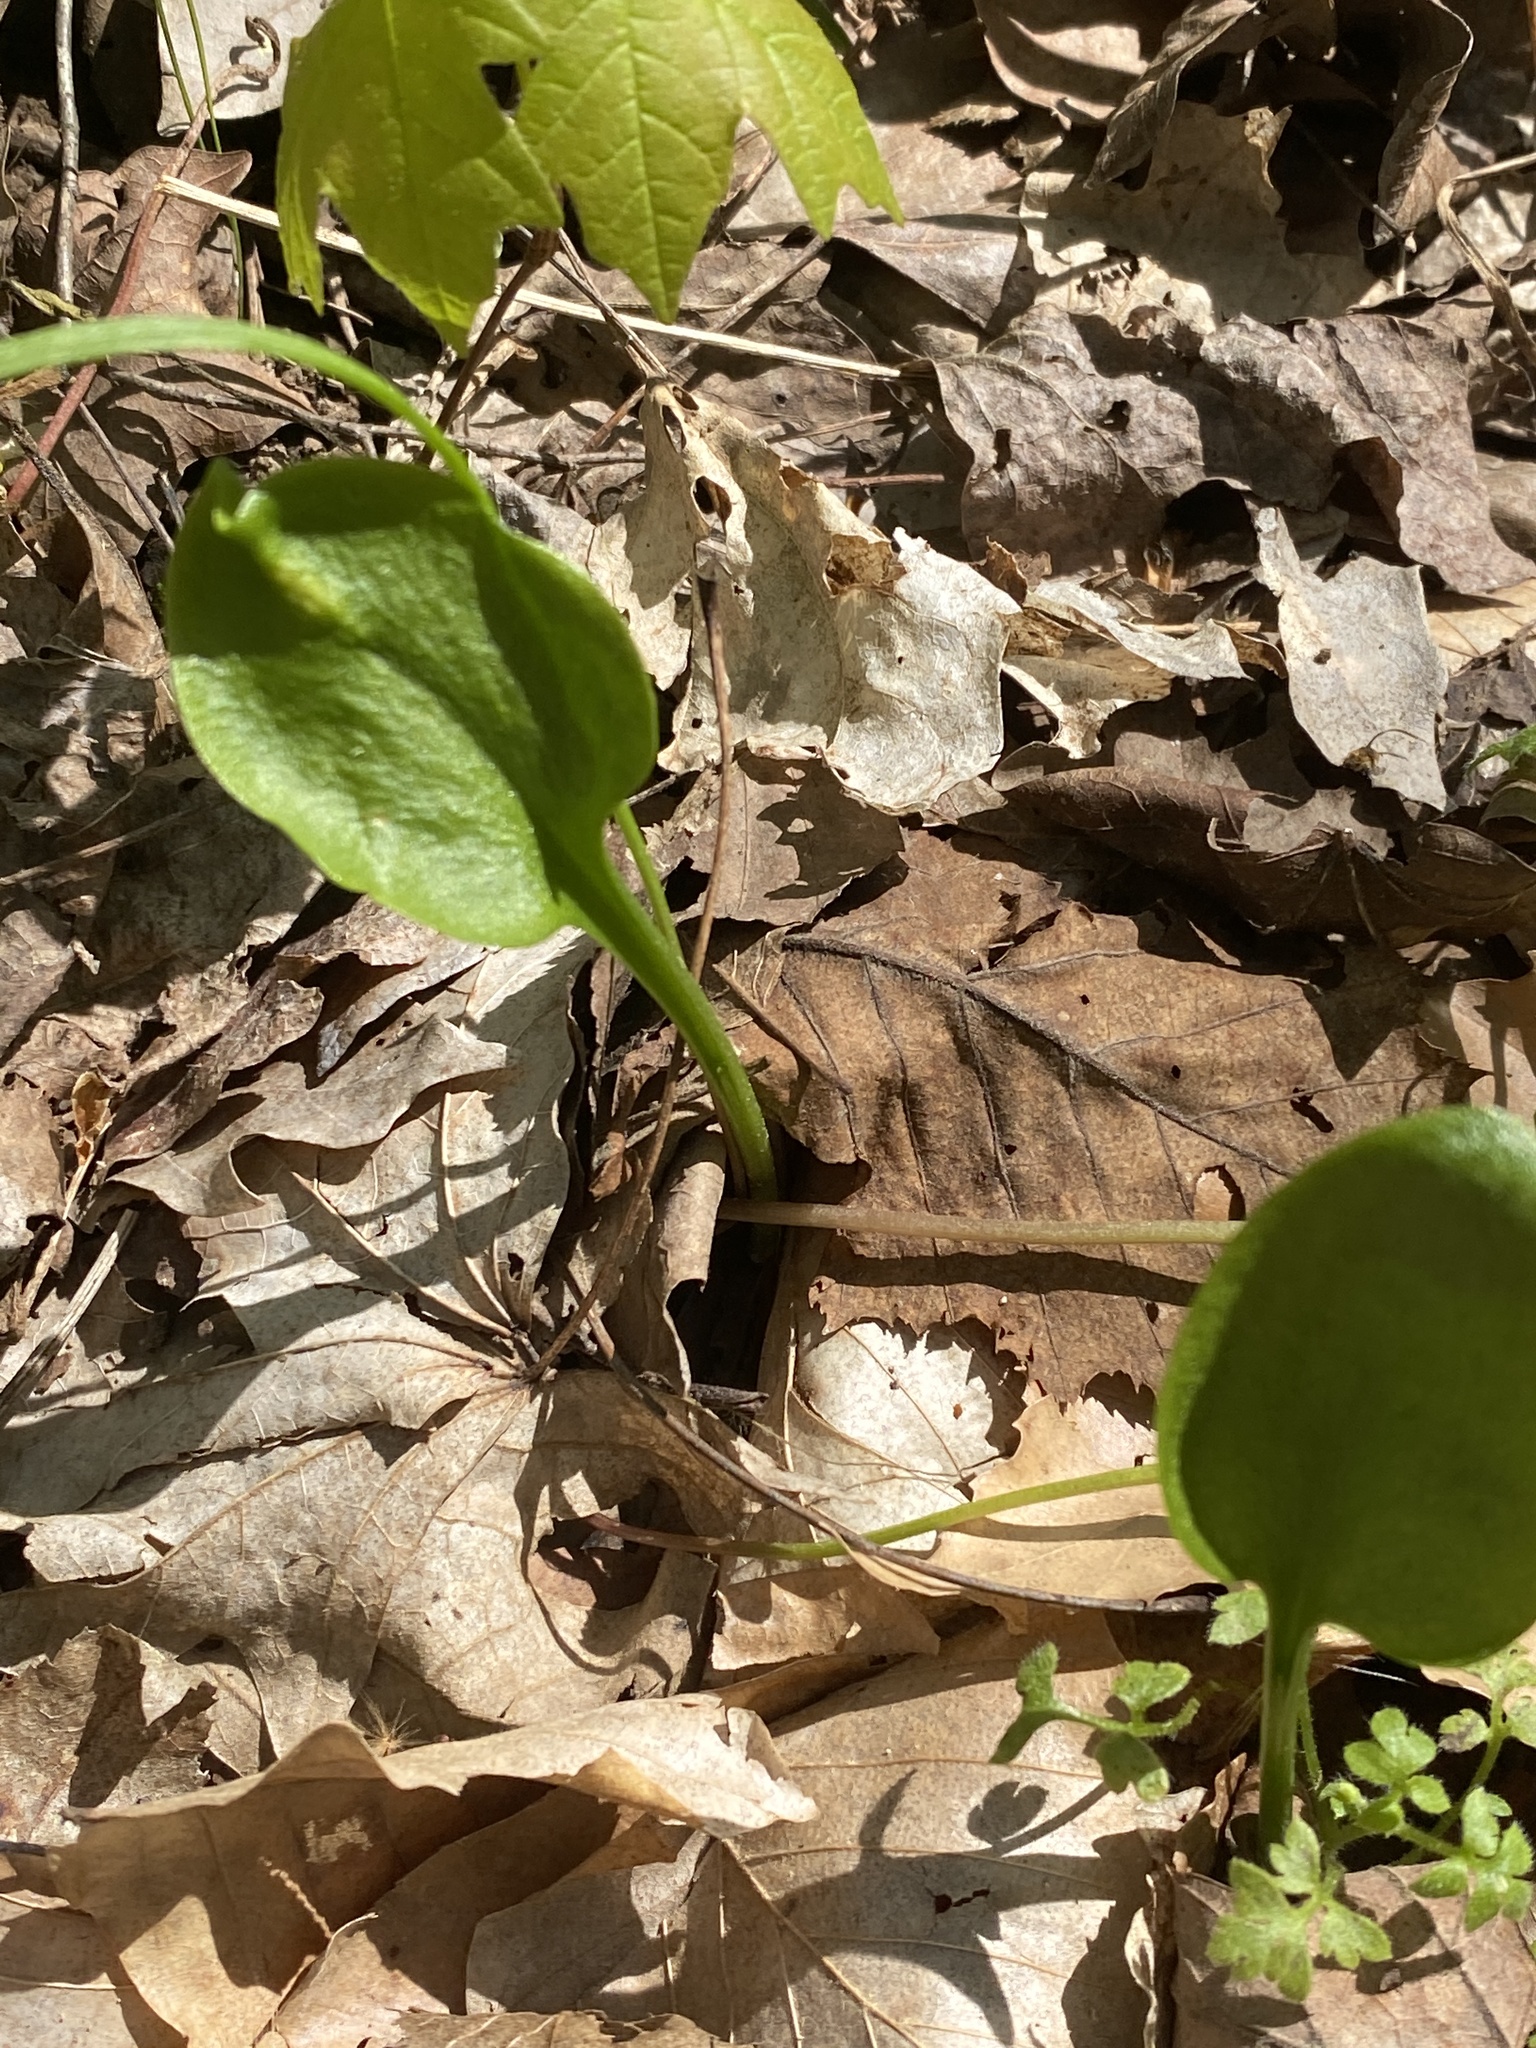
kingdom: Plantae
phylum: Tracheophyta
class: Polypodiopsida
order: Ophioglossales
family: Ophioglossaceae
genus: Ophioglossum
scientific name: Ophioglossum vulgatum
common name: Adder's-tongue
